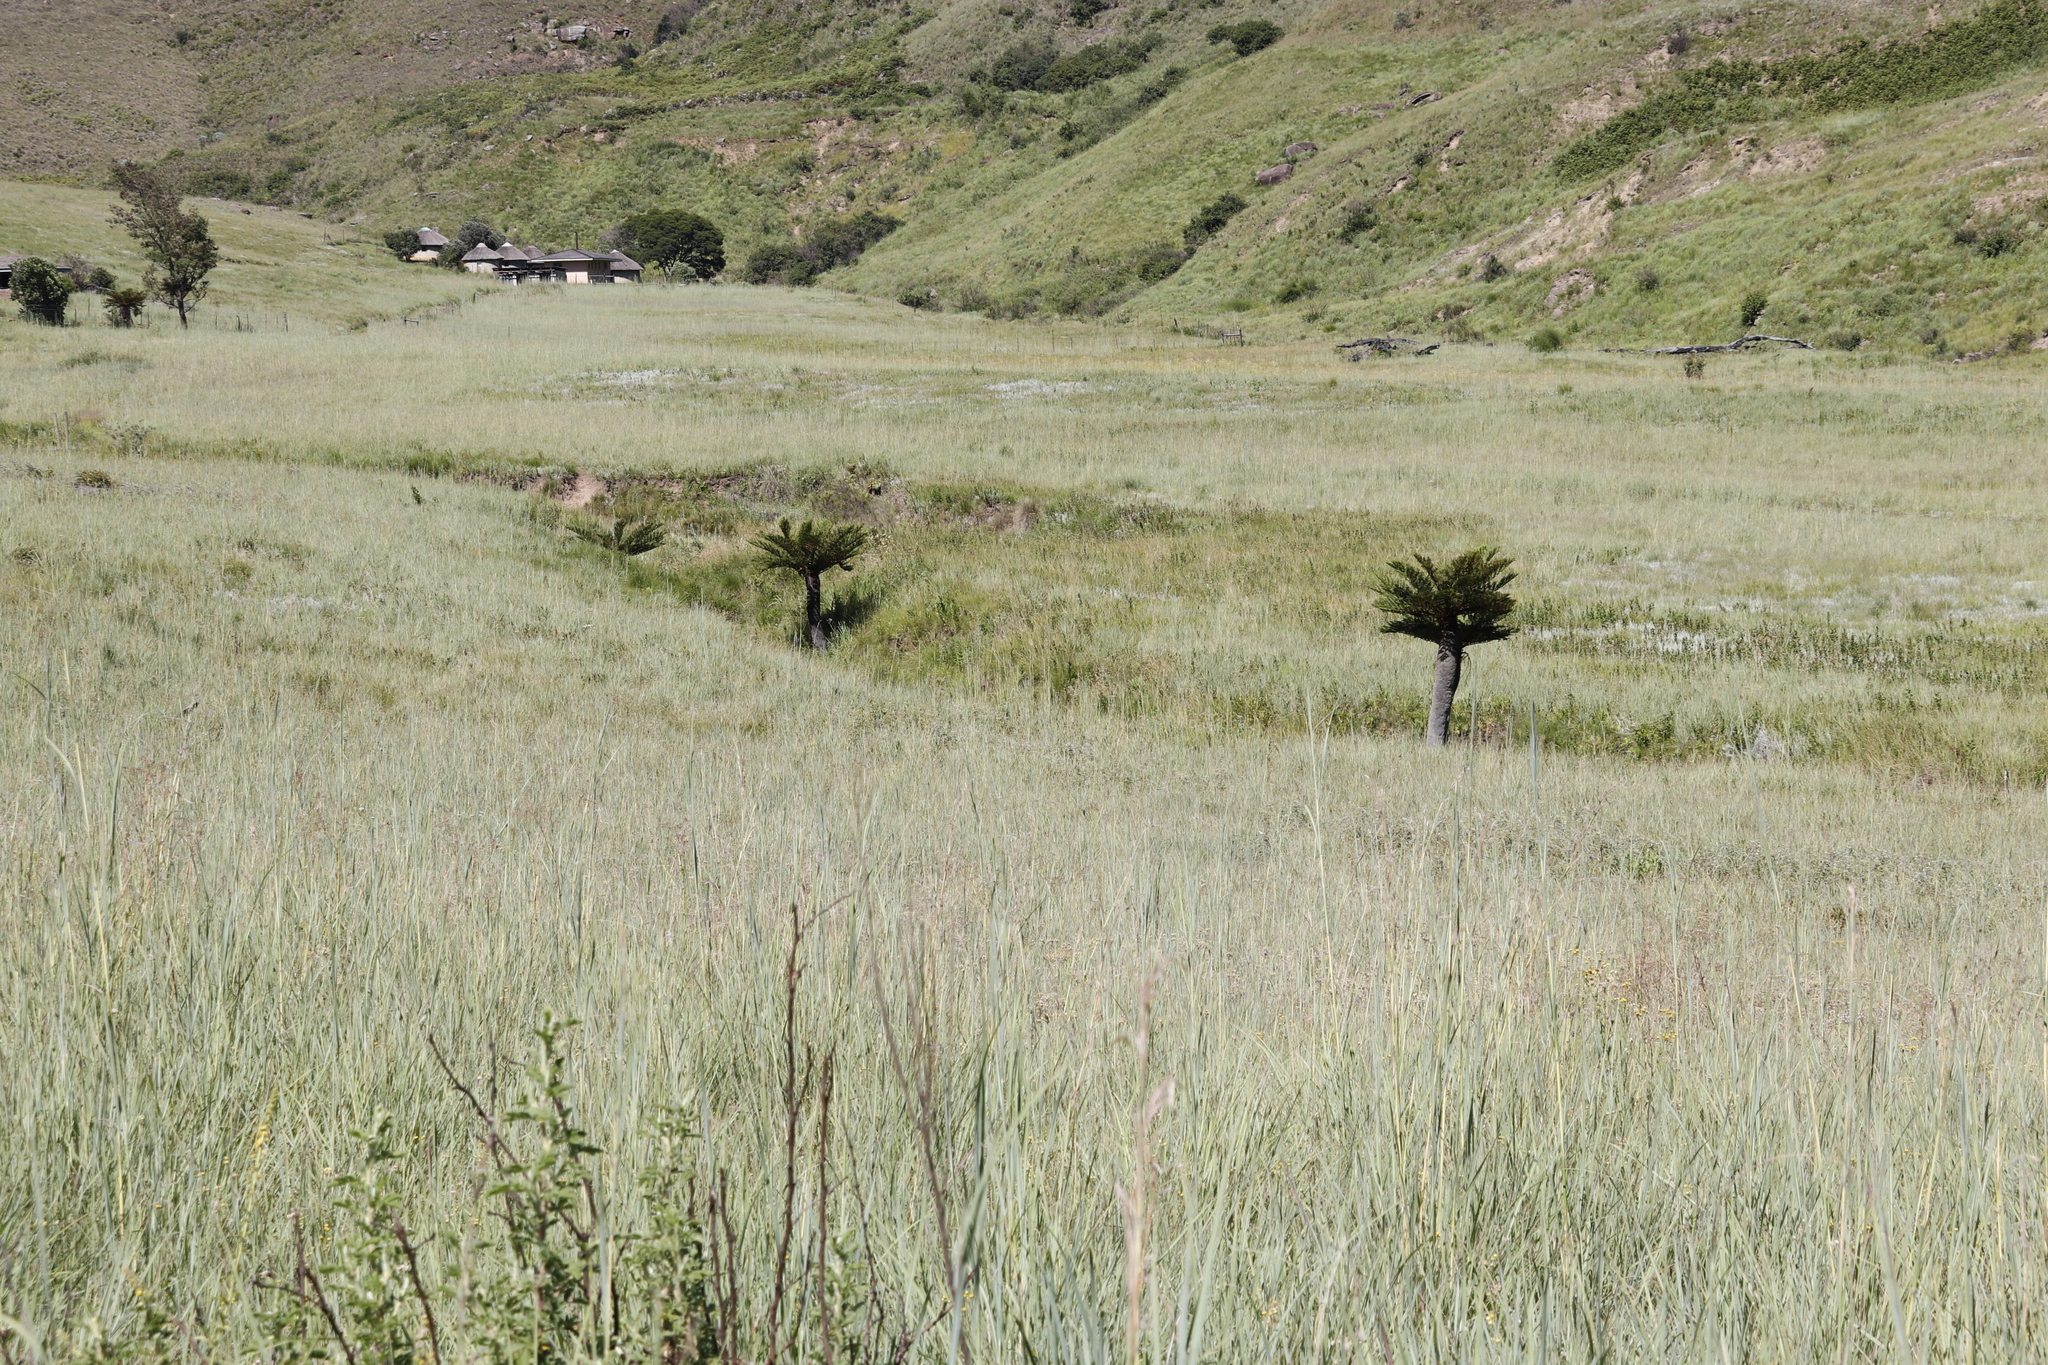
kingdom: Plantae
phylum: Tracheophyta
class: Polypodiopsida
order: Cyatheales
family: Cyatheaceae
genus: Alsophila
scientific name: Alsophila dregei
